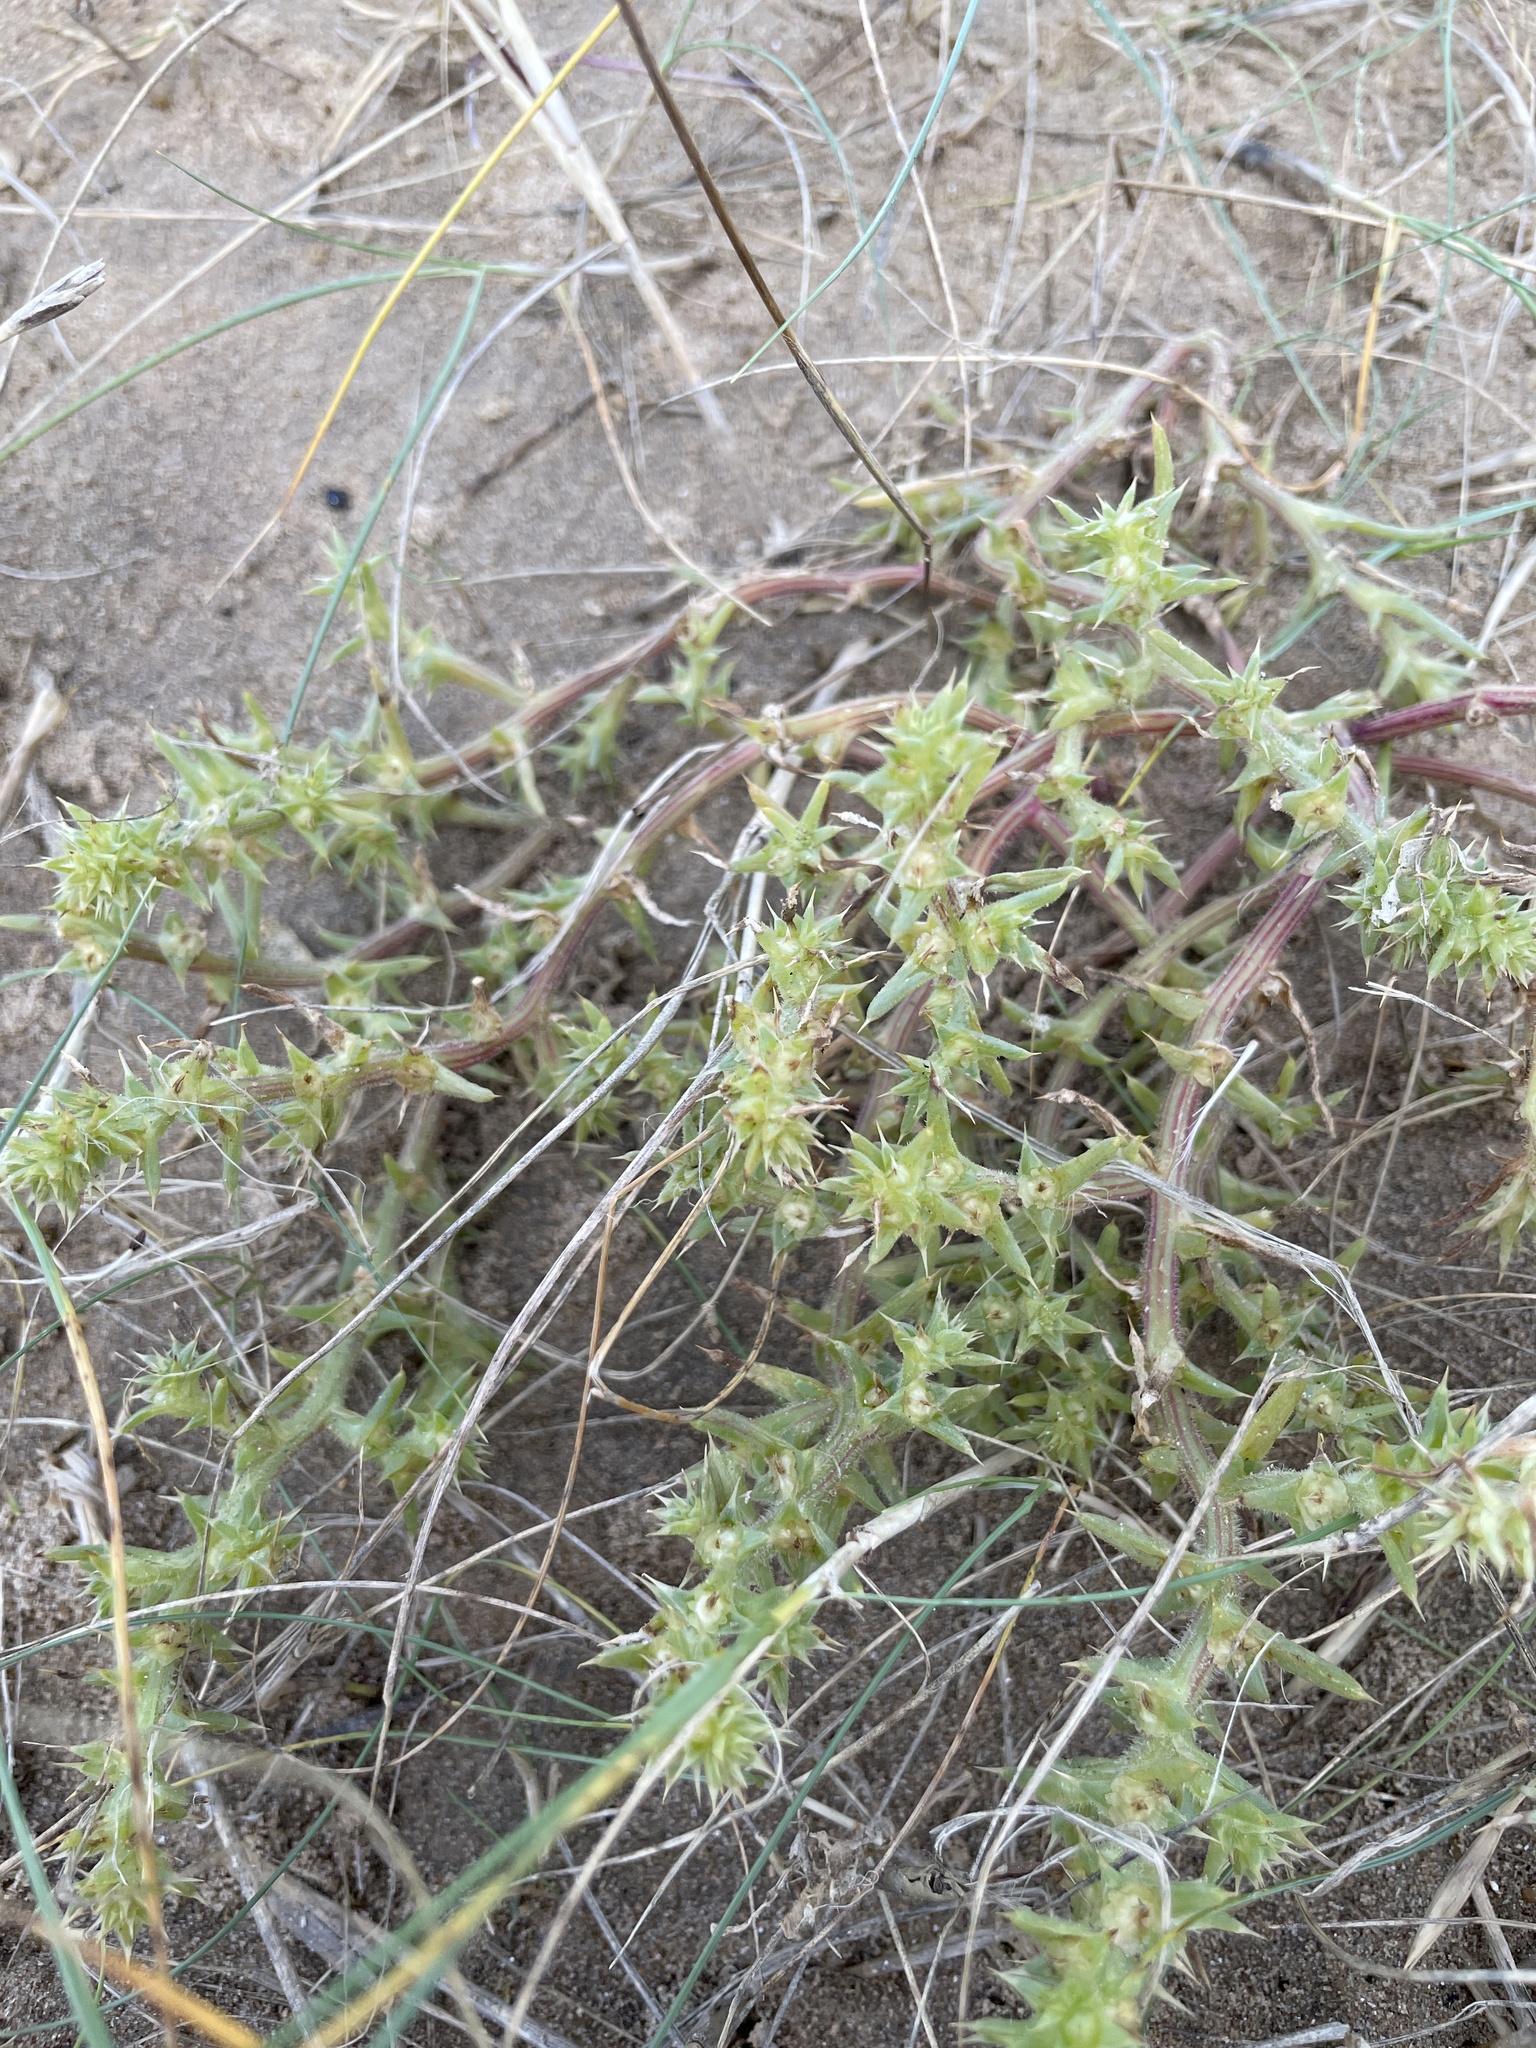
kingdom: Plantae
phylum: Tracheophyta
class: Magnoliopsida
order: Caryophyllales
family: Amaranthaceae
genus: Salsola
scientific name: Salsola kali
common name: Saltwort
